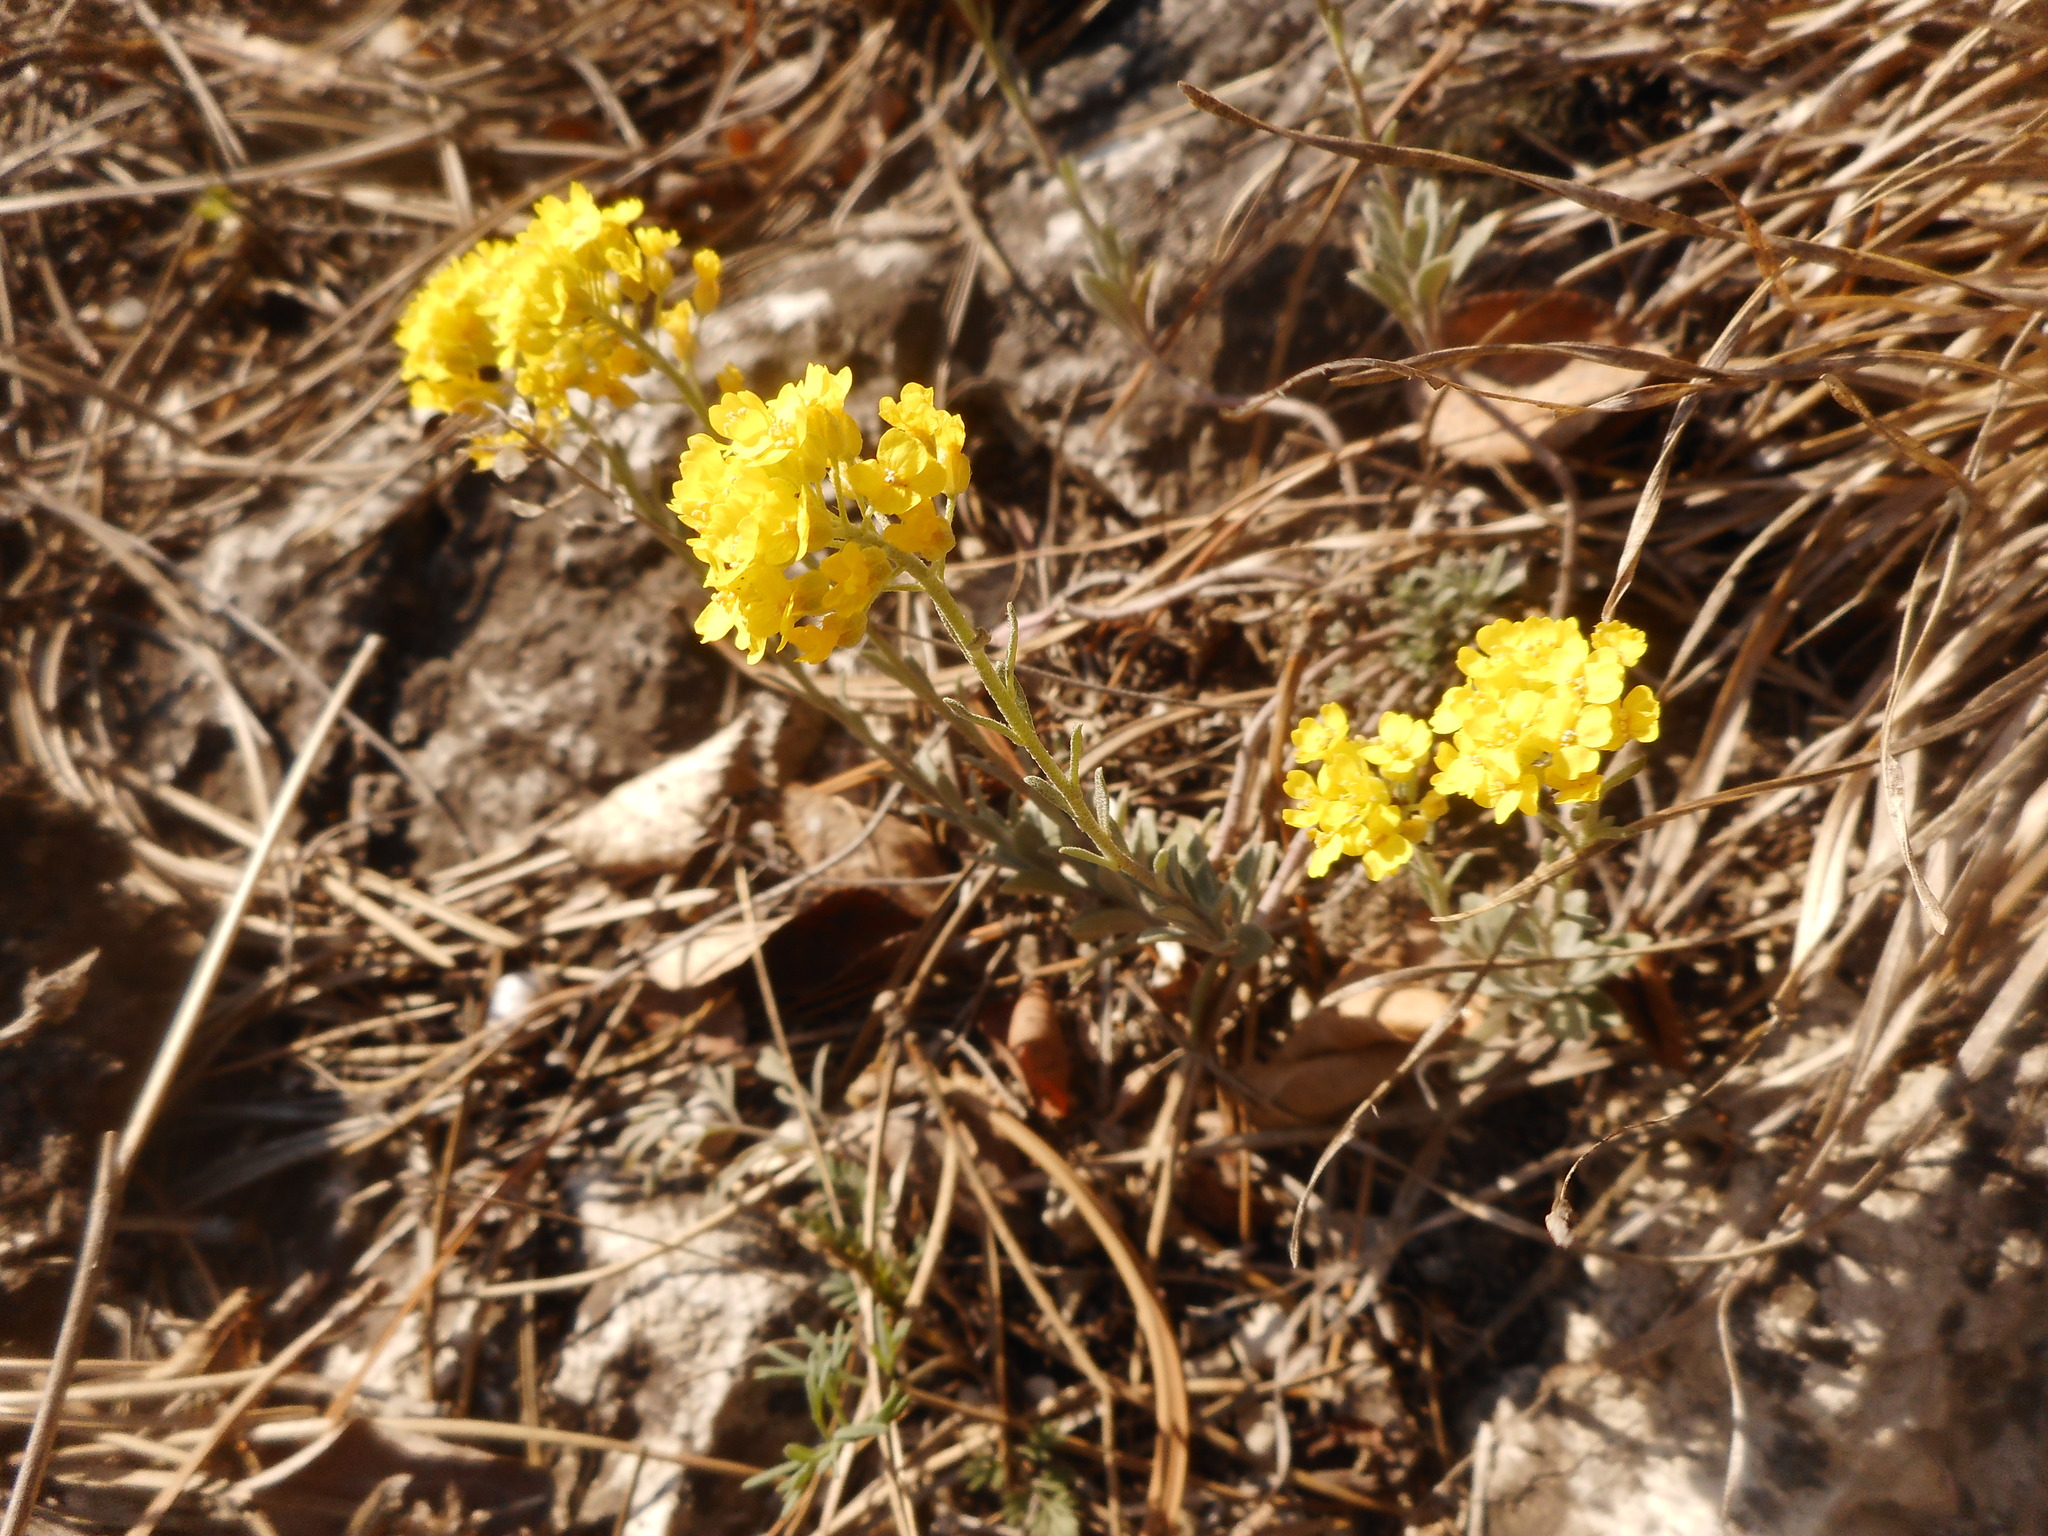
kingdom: Plantae
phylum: Tracheophyta
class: Magnoliopsida
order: Brassicales
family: Brassicaceae
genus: Alyssum
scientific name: Alyssum gmelinii
